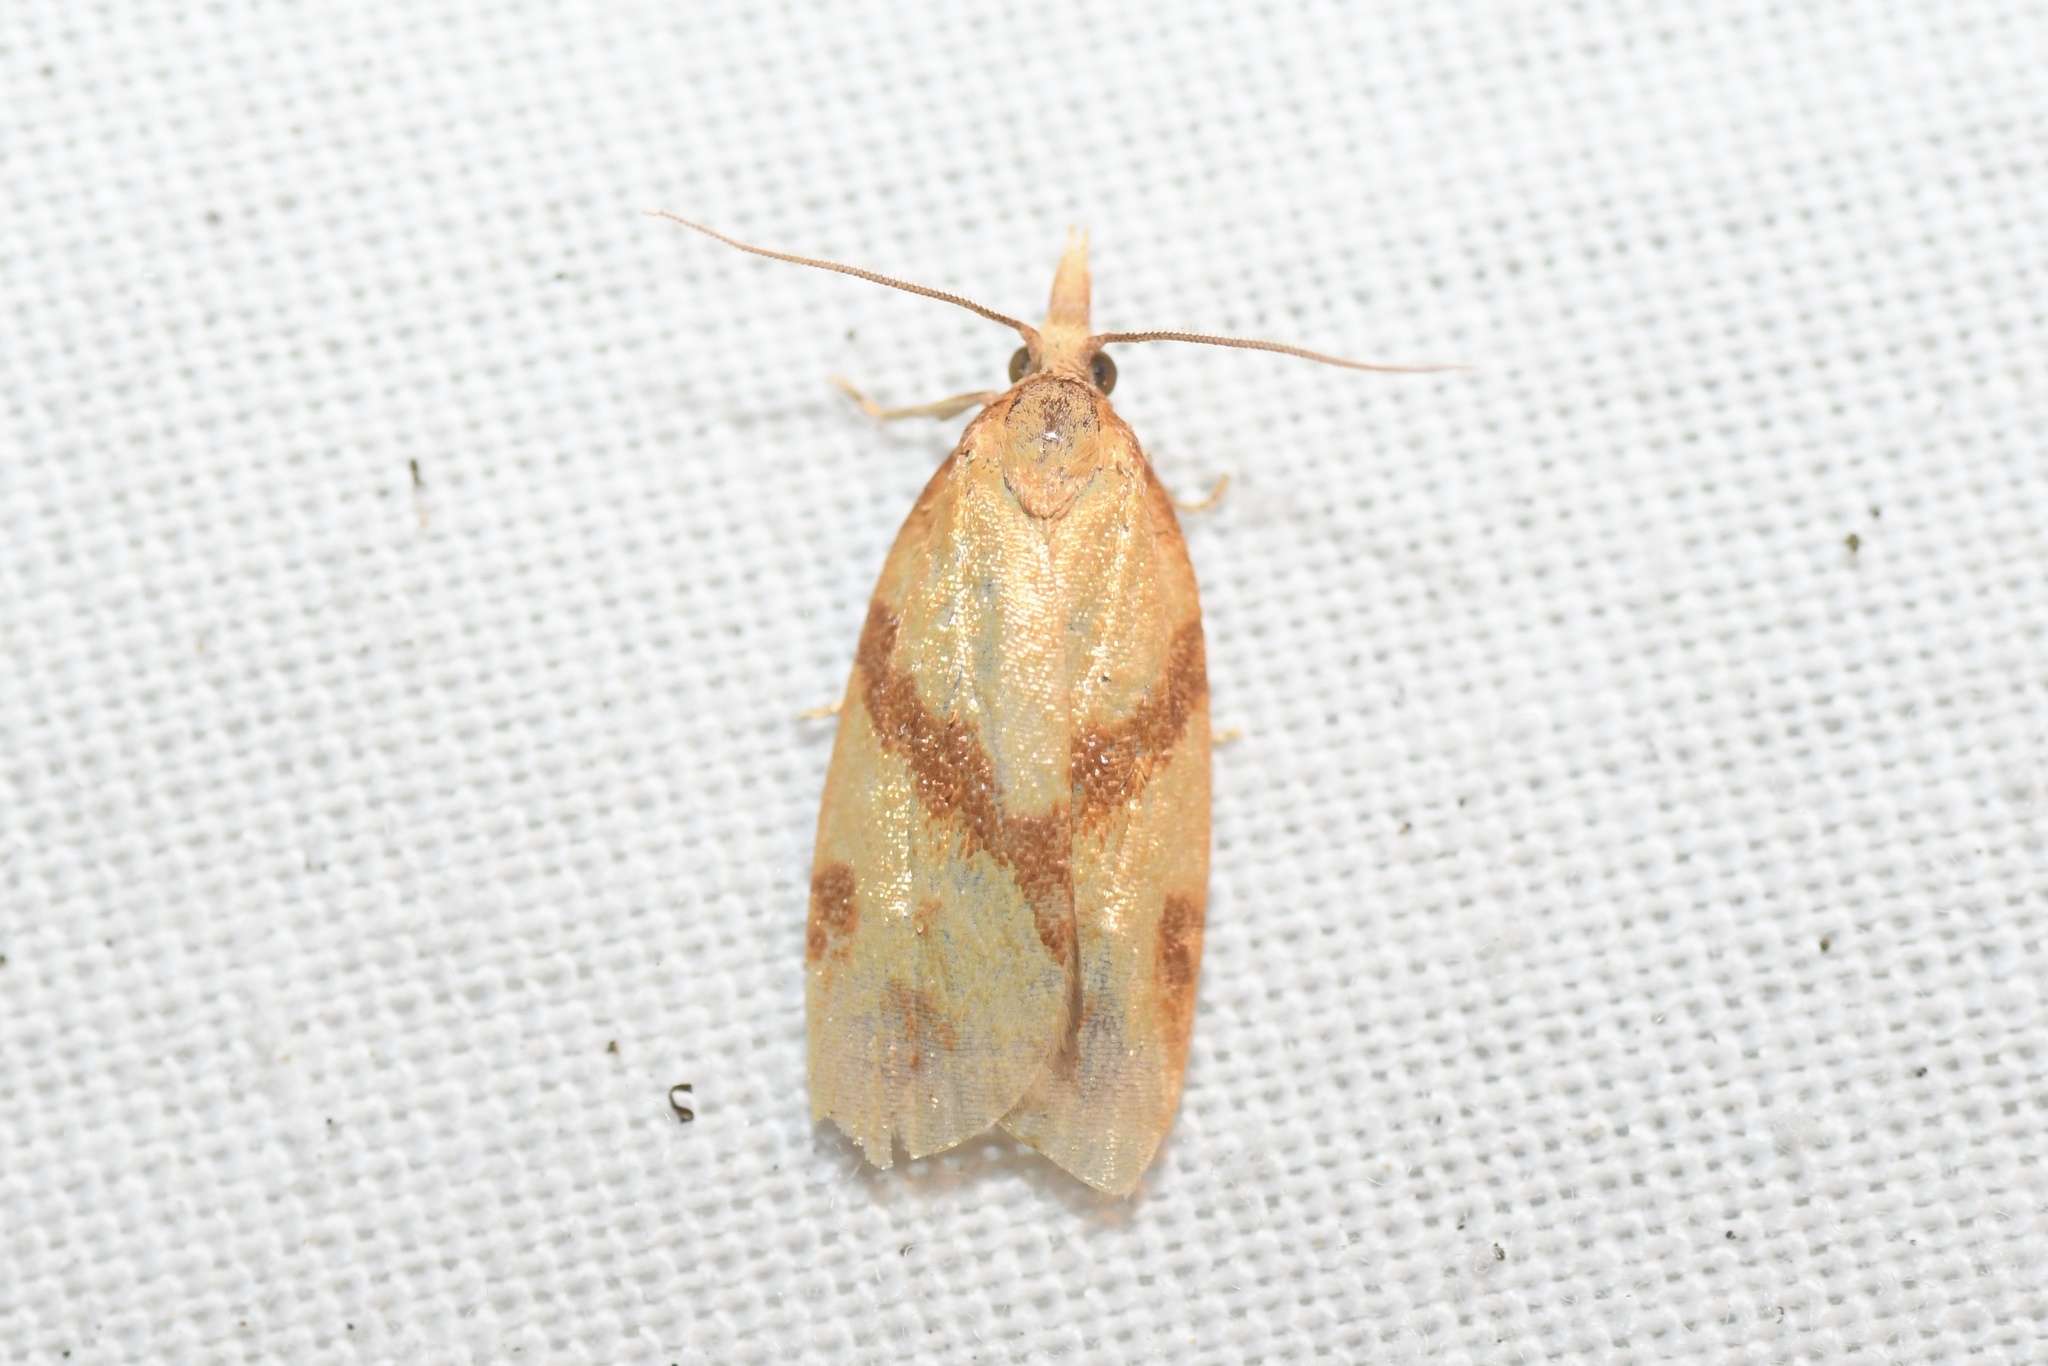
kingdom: Animalia
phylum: Arthropoda
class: Insecta
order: Lepidoptera
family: Tortricidae
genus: Sparganothis
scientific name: Sparganothis unifasciana
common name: One-lined sparganothis moth
